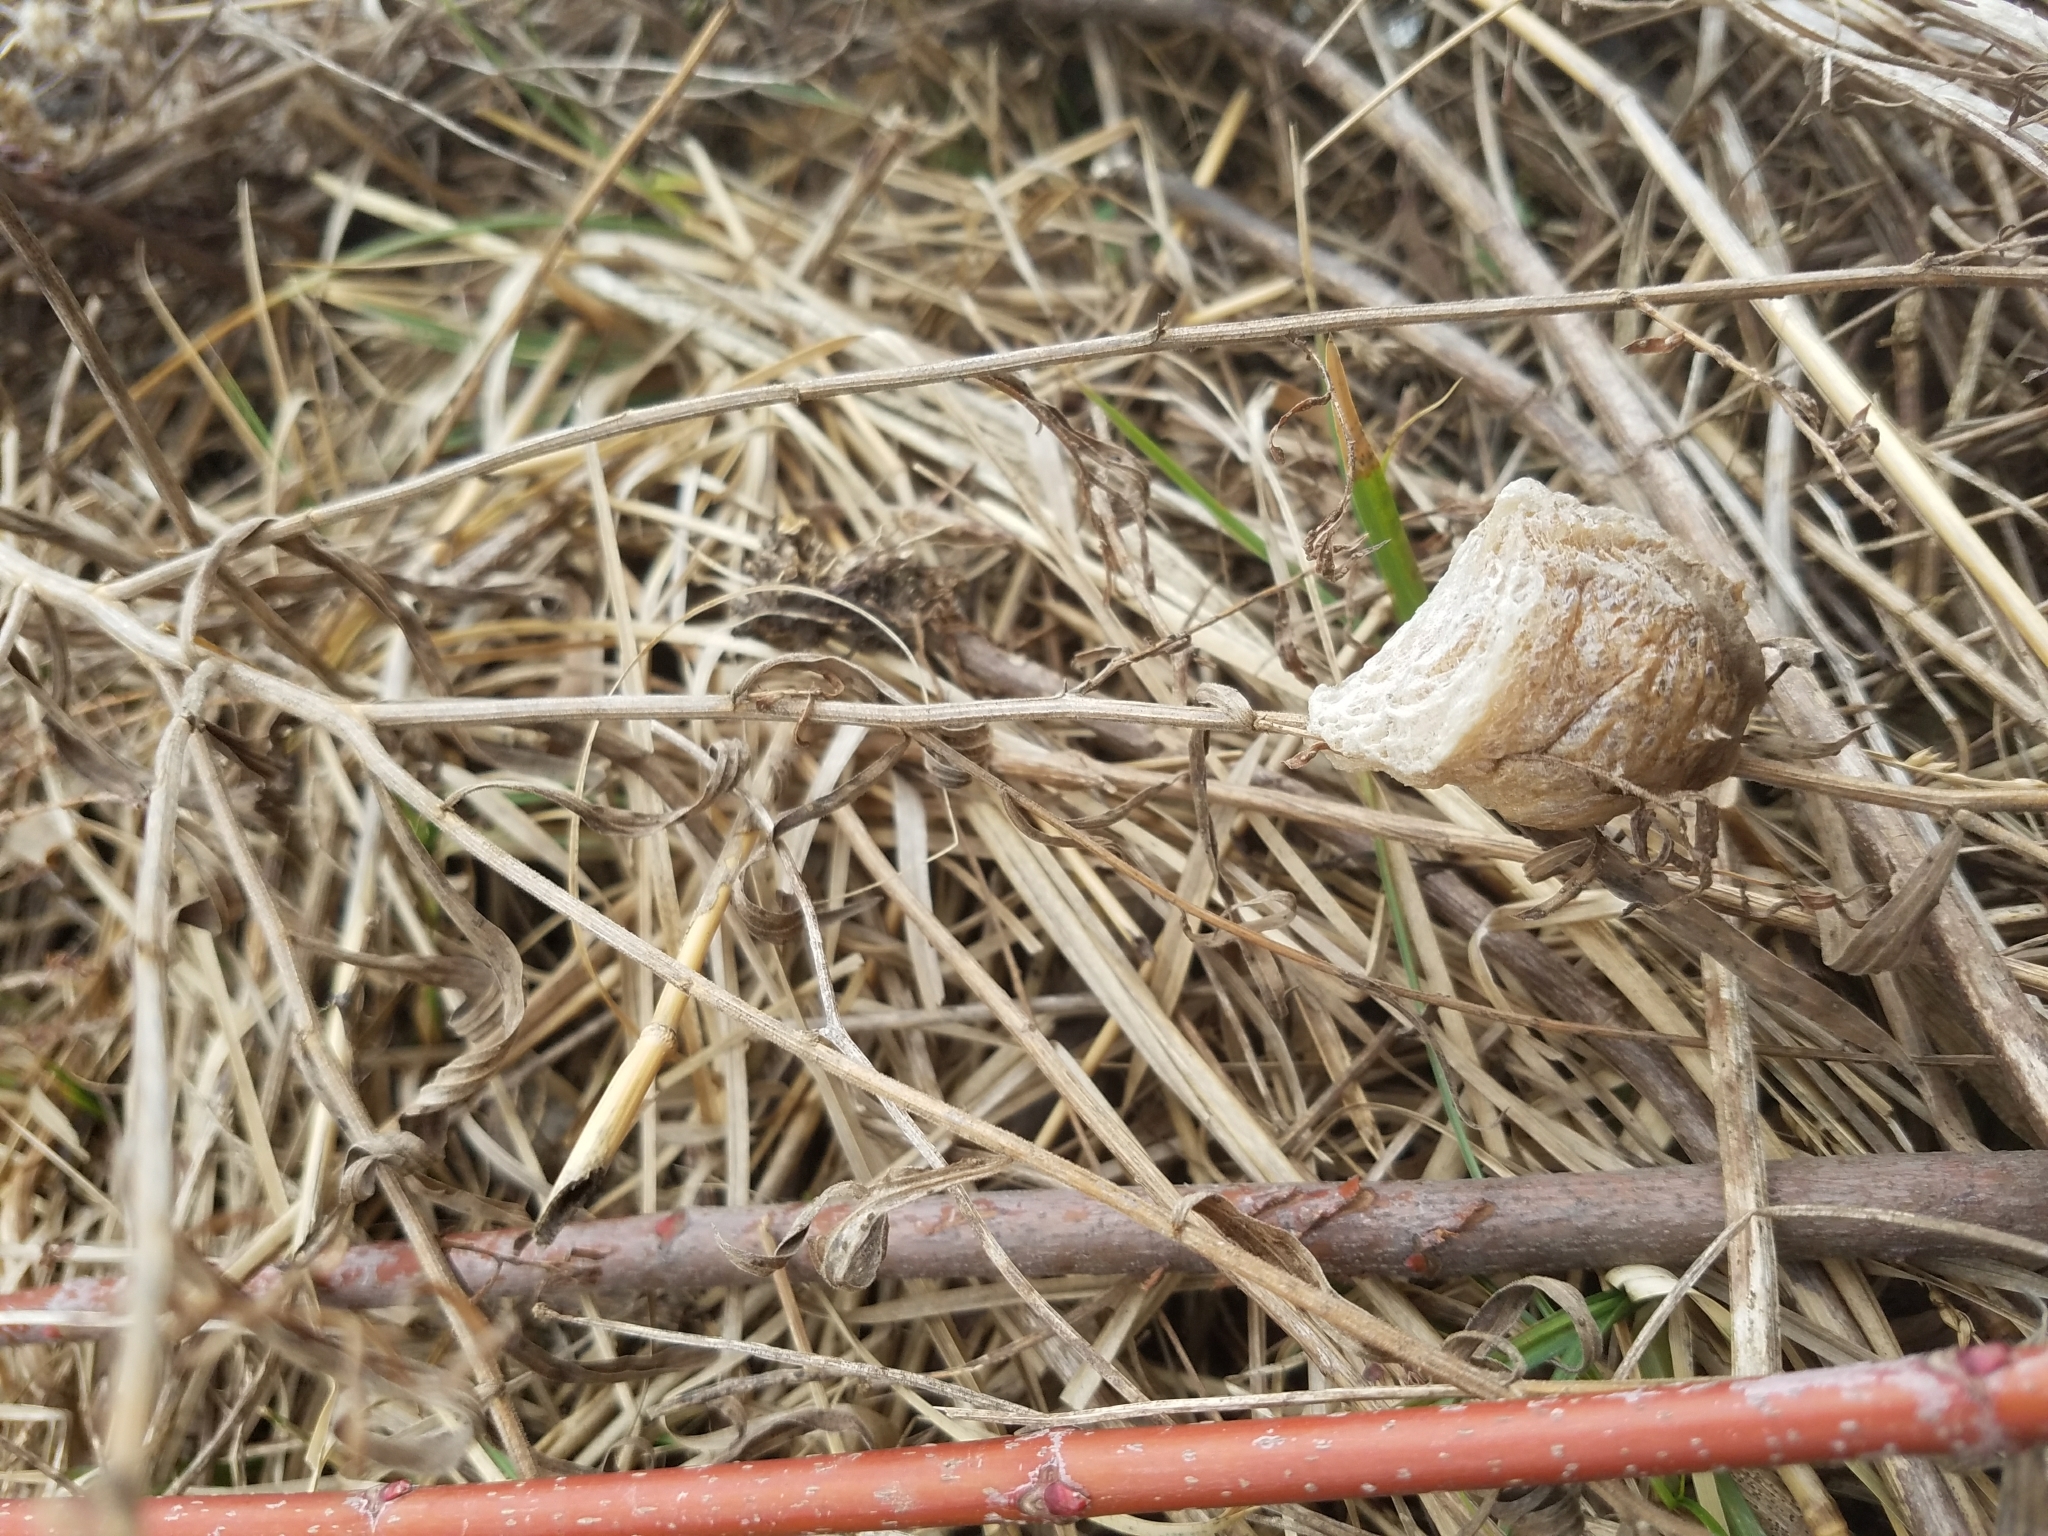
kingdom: Animalia
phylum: Arthropoda
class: Insecta
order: Mantodea
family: Mantidae
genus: Tenodera
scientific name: Tenodera sinensis
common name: Chinese mantis
